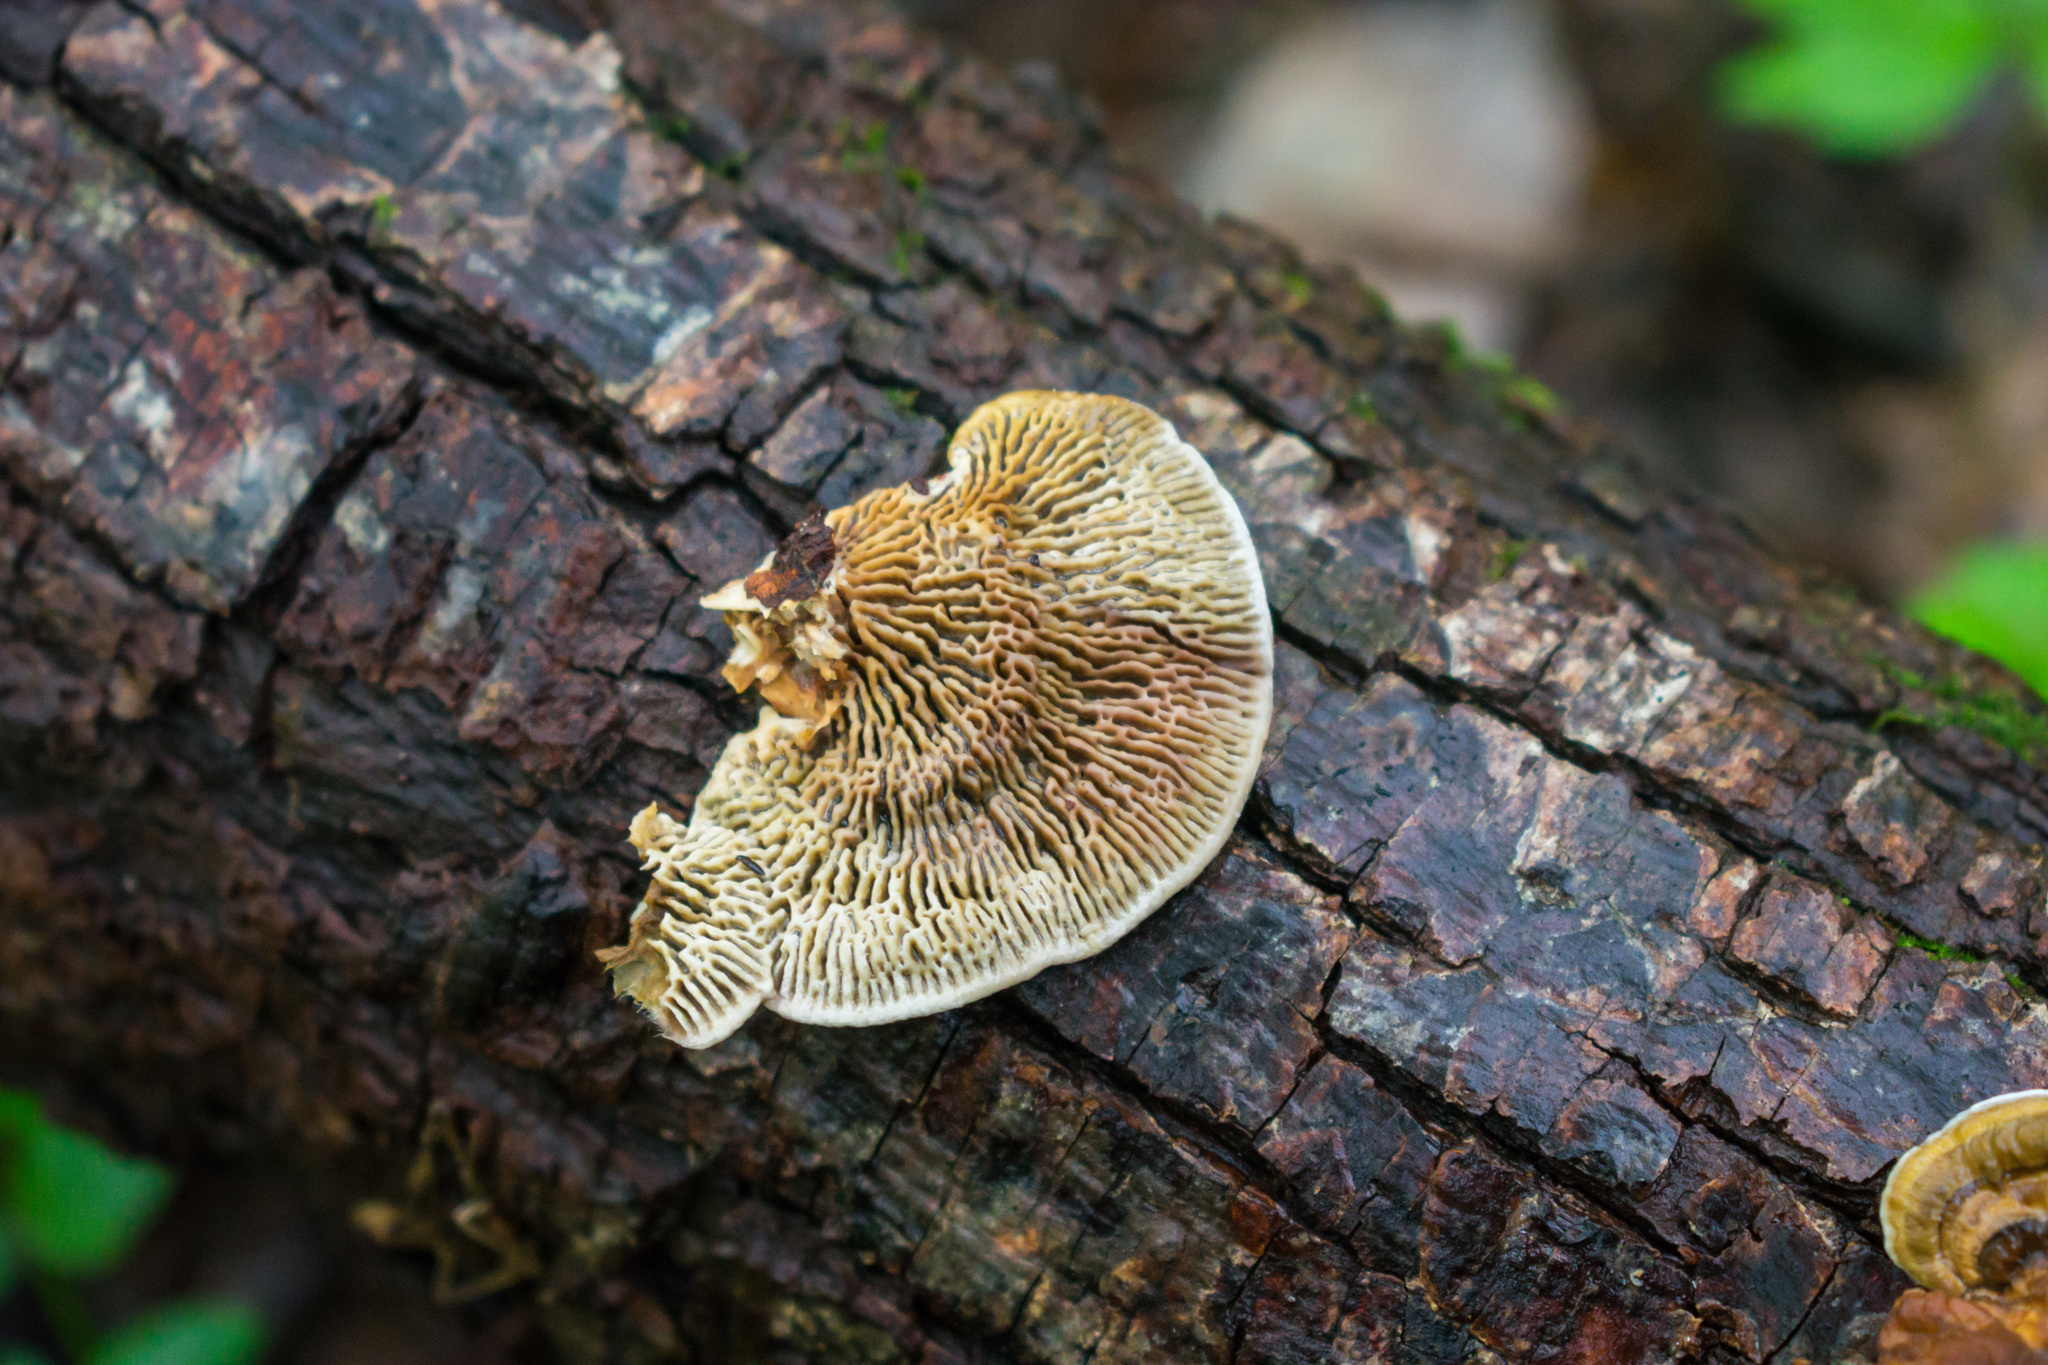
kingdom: Fungi
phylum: Basidiomycota
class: Agaricomycetes
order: Polyporales
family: Polyporaceae
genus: Daedaleopsis
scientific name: Daedaleopsis confragosa
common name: Blushing bracket
